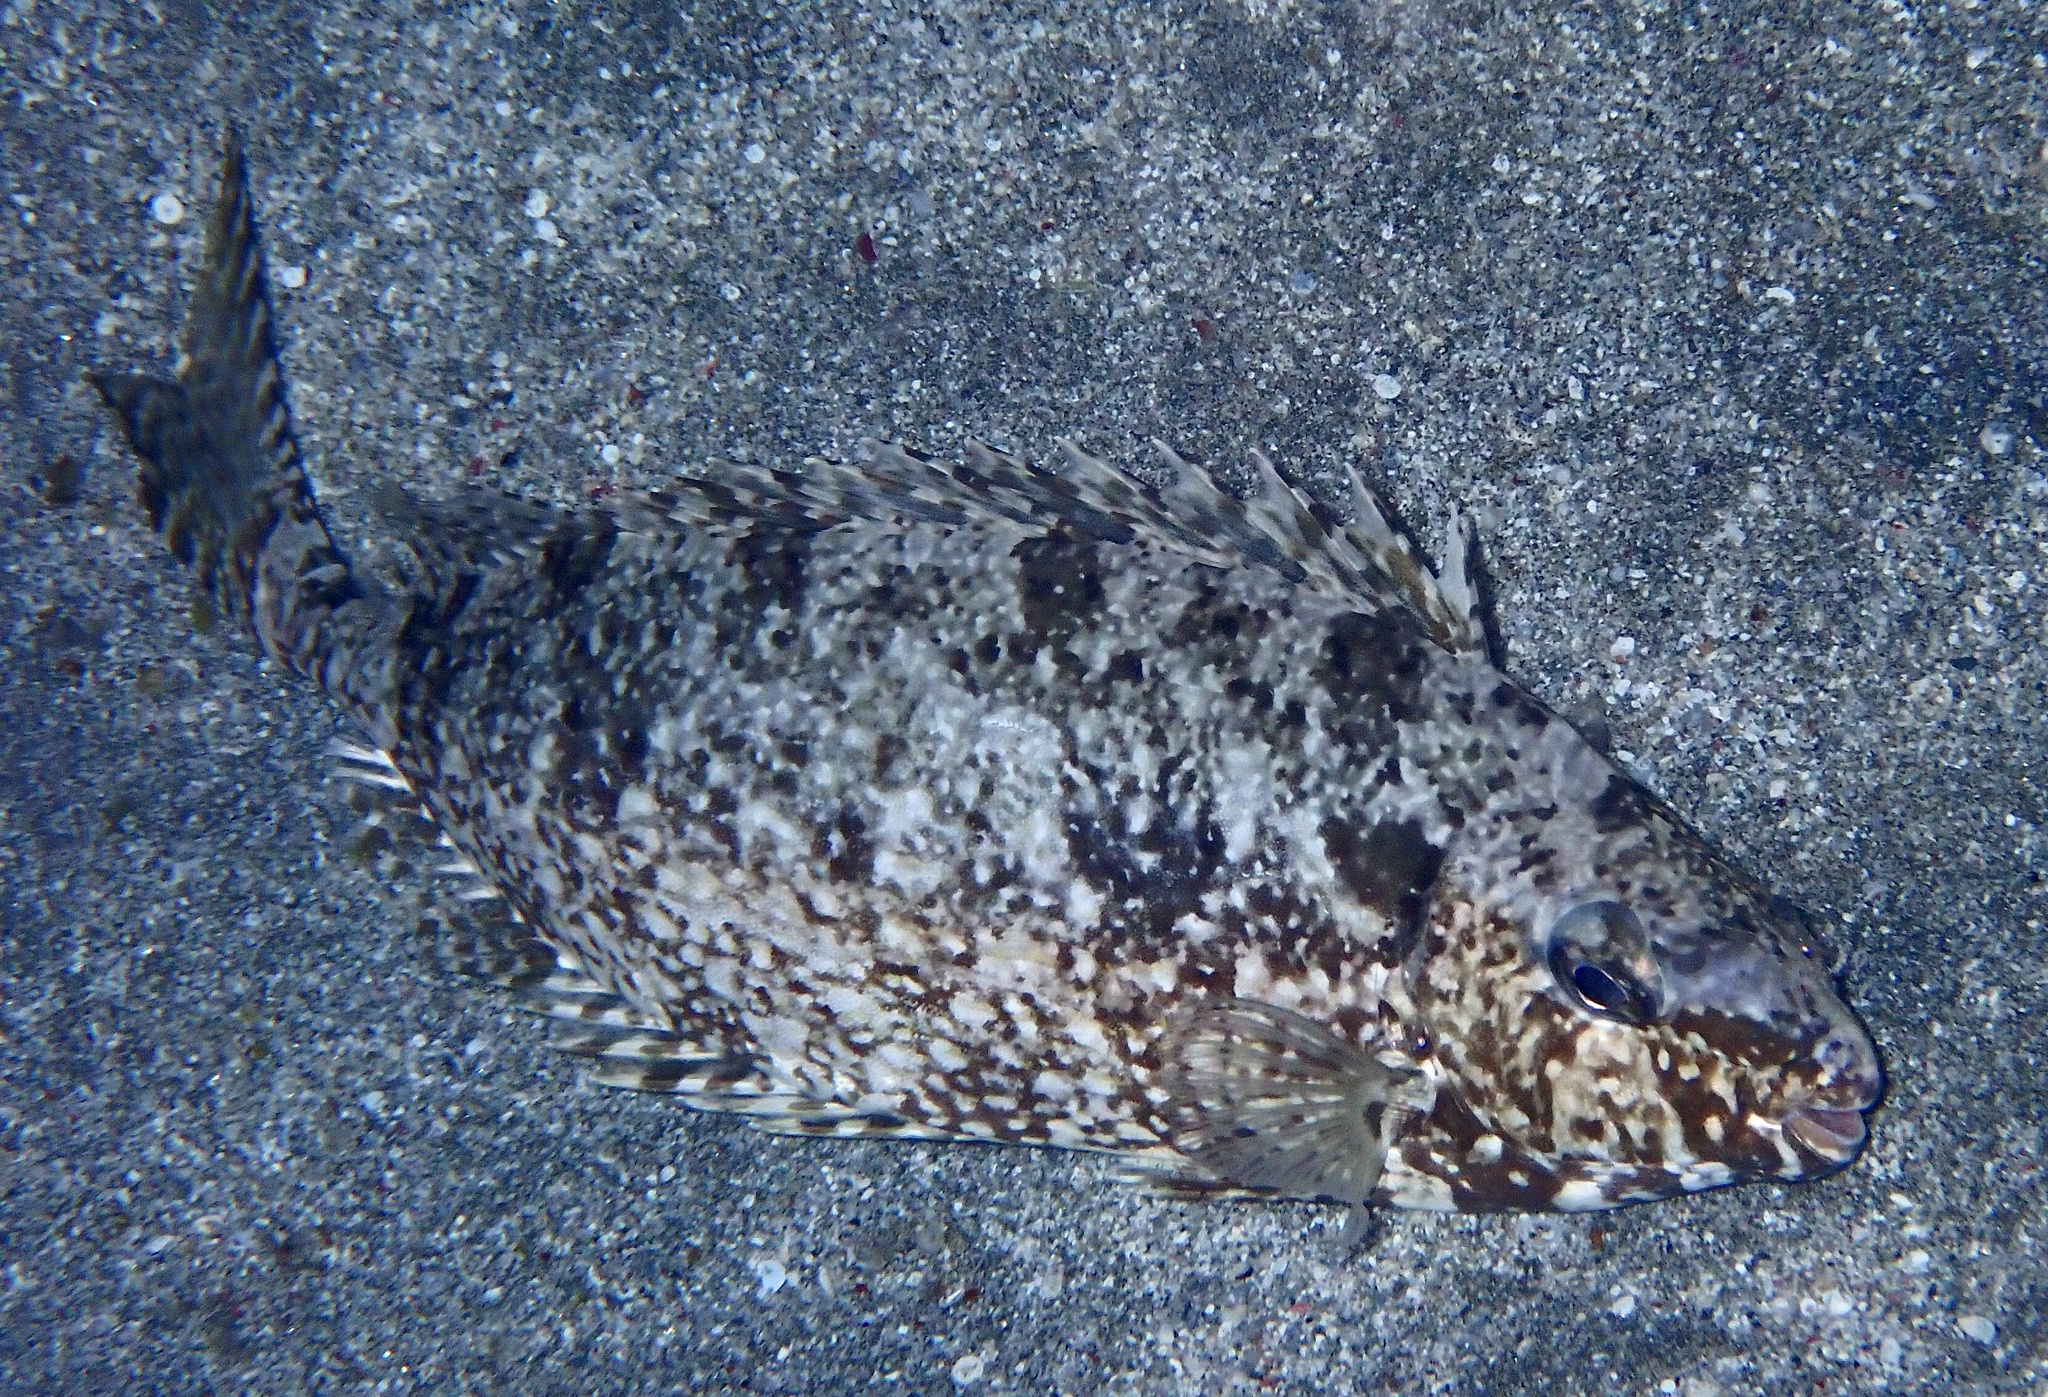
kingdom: Animalia
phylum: Chordata
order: Perciformes
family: Siganidae
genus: Siganus
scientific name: Siganus rivulatus
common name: Marbled spinefoot
